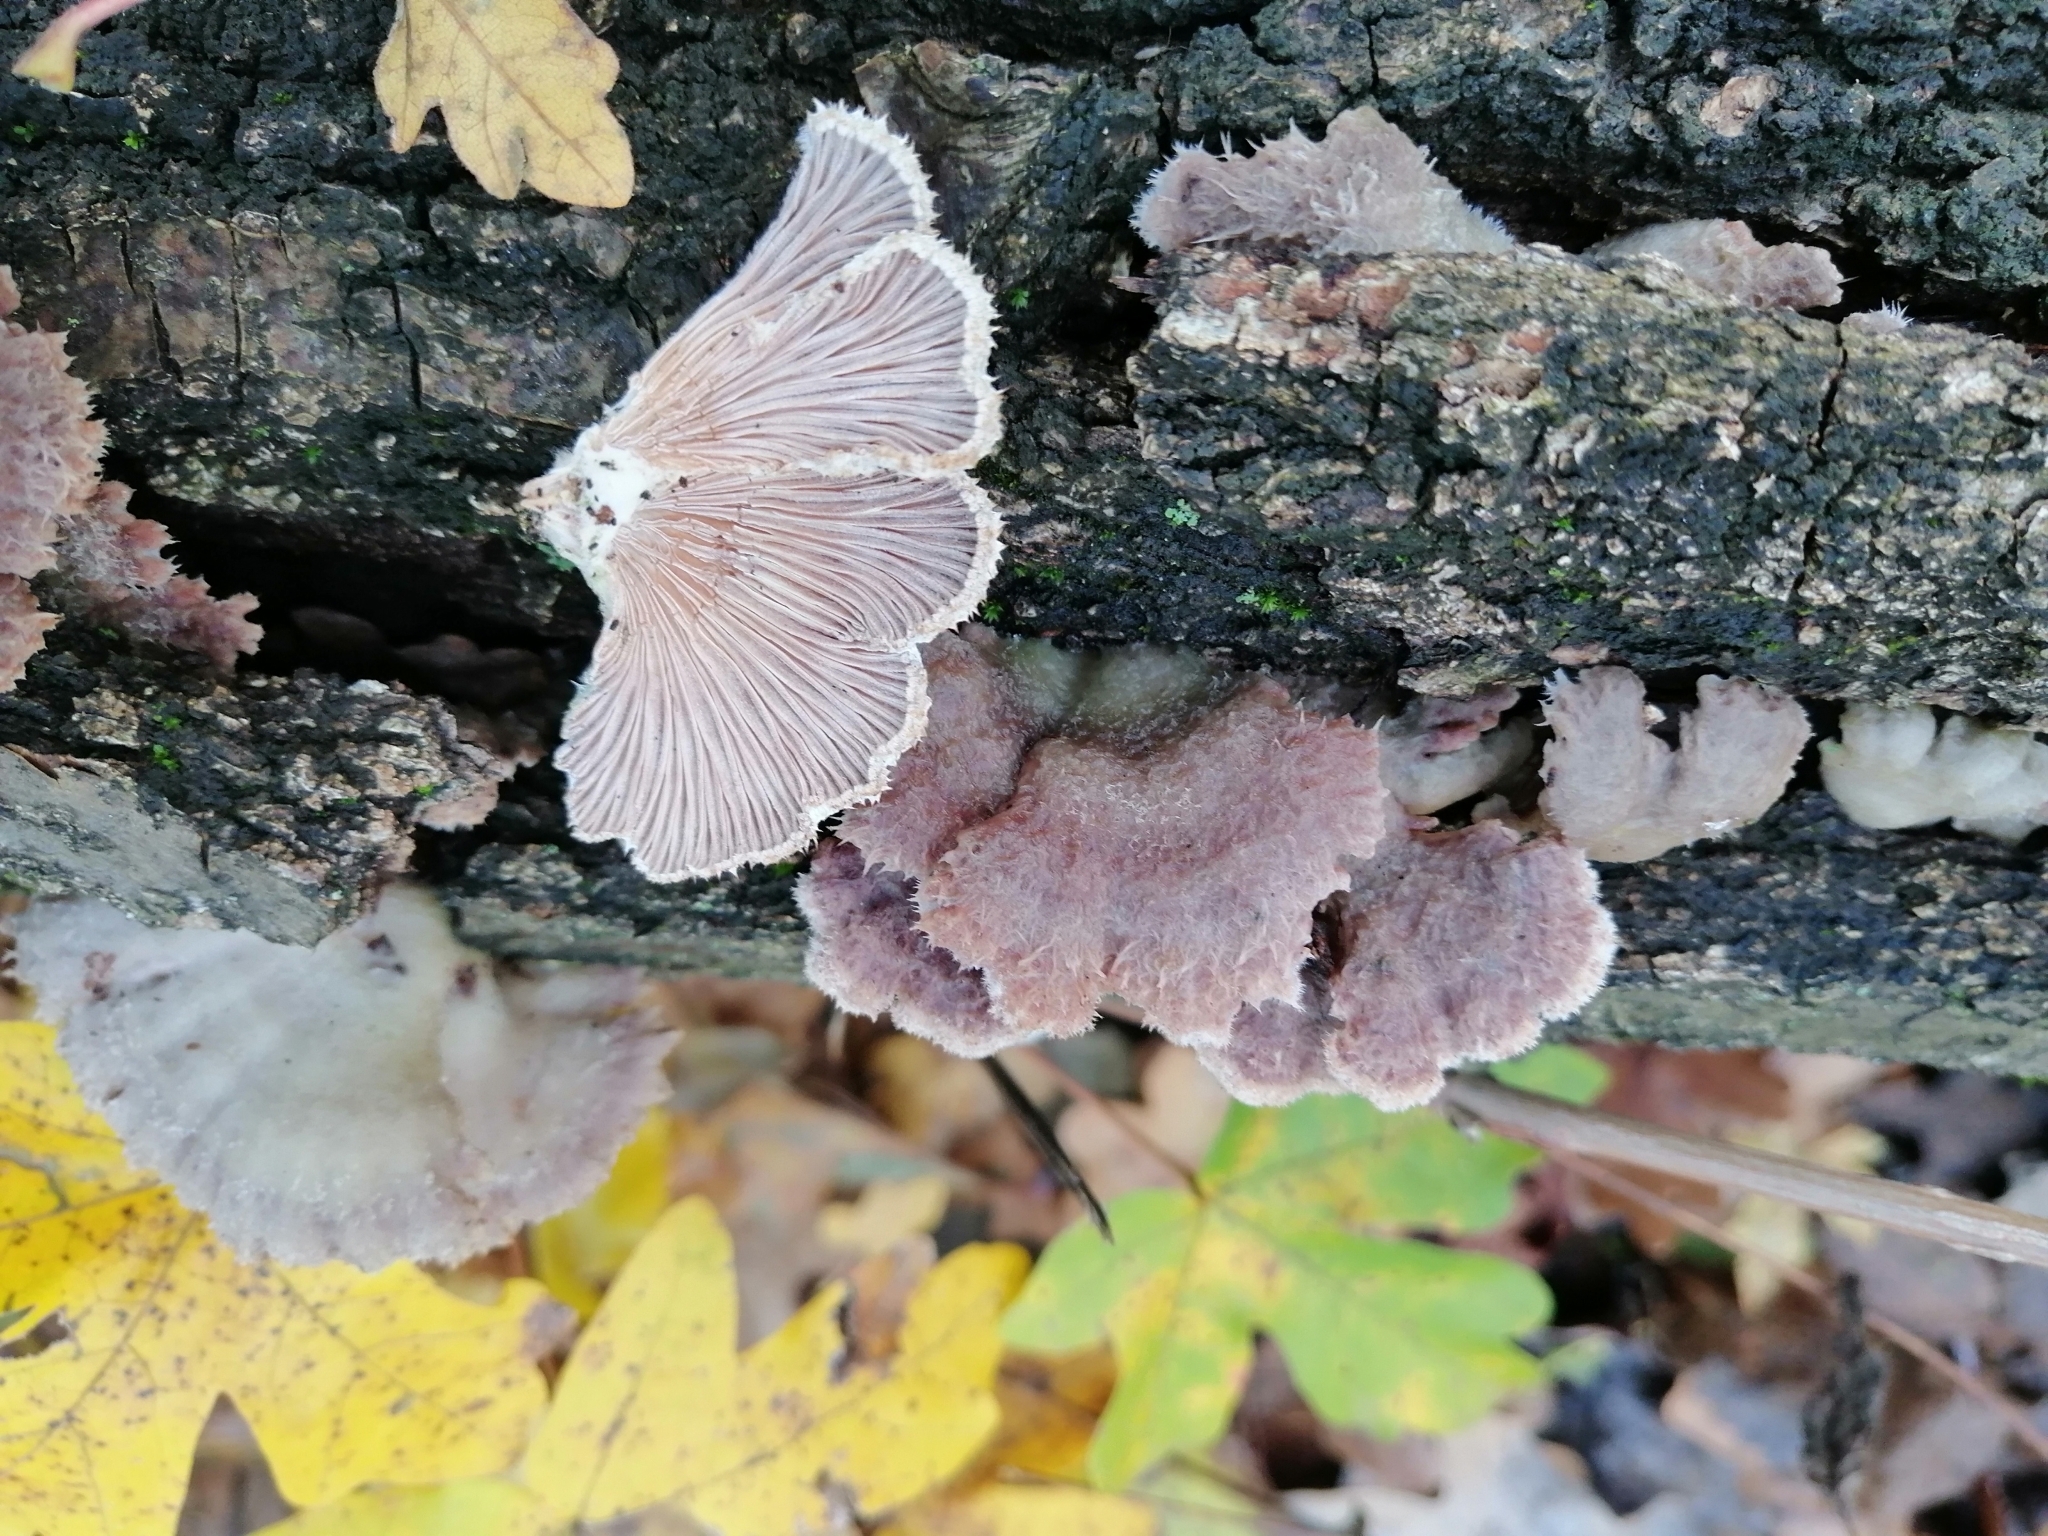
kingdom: Fungi
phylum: Basidiomycota
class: Agaricomycetes
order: Agaricales
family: Schizophyllaceae
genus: Schizophyllum
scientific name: Schizophyllum commune
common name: Common porecrust
